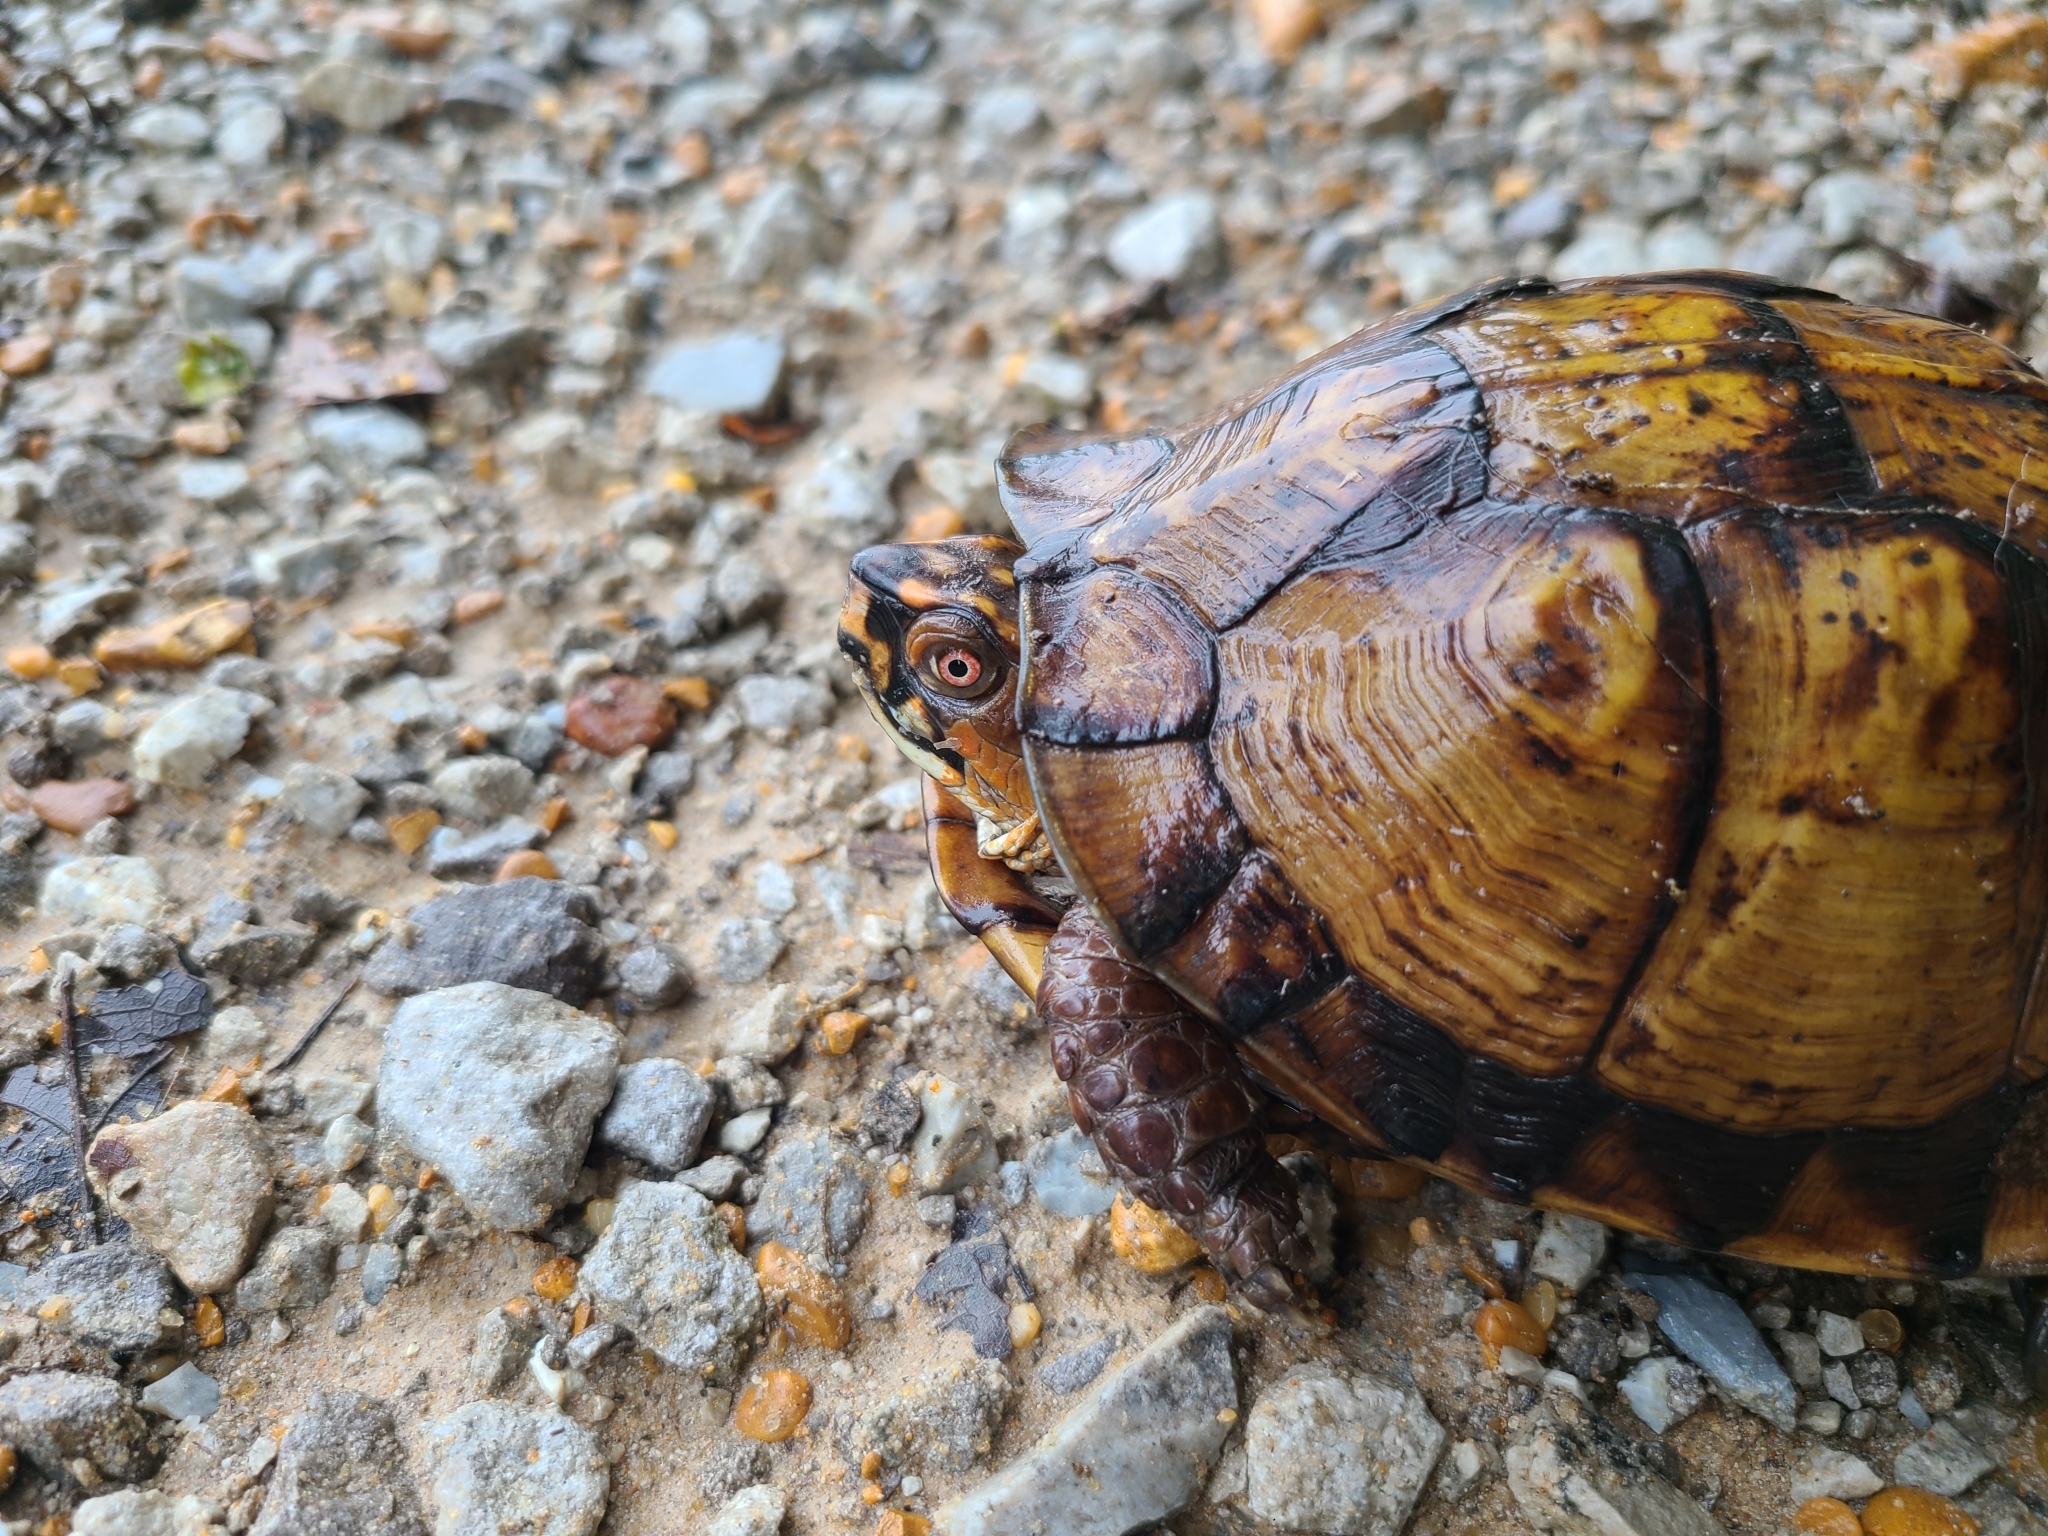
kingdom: Animalia
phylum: Chordata
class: Testudines
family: Emydidae
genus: Terrapene
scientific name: Terrapene carolina
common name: Common box turtle
